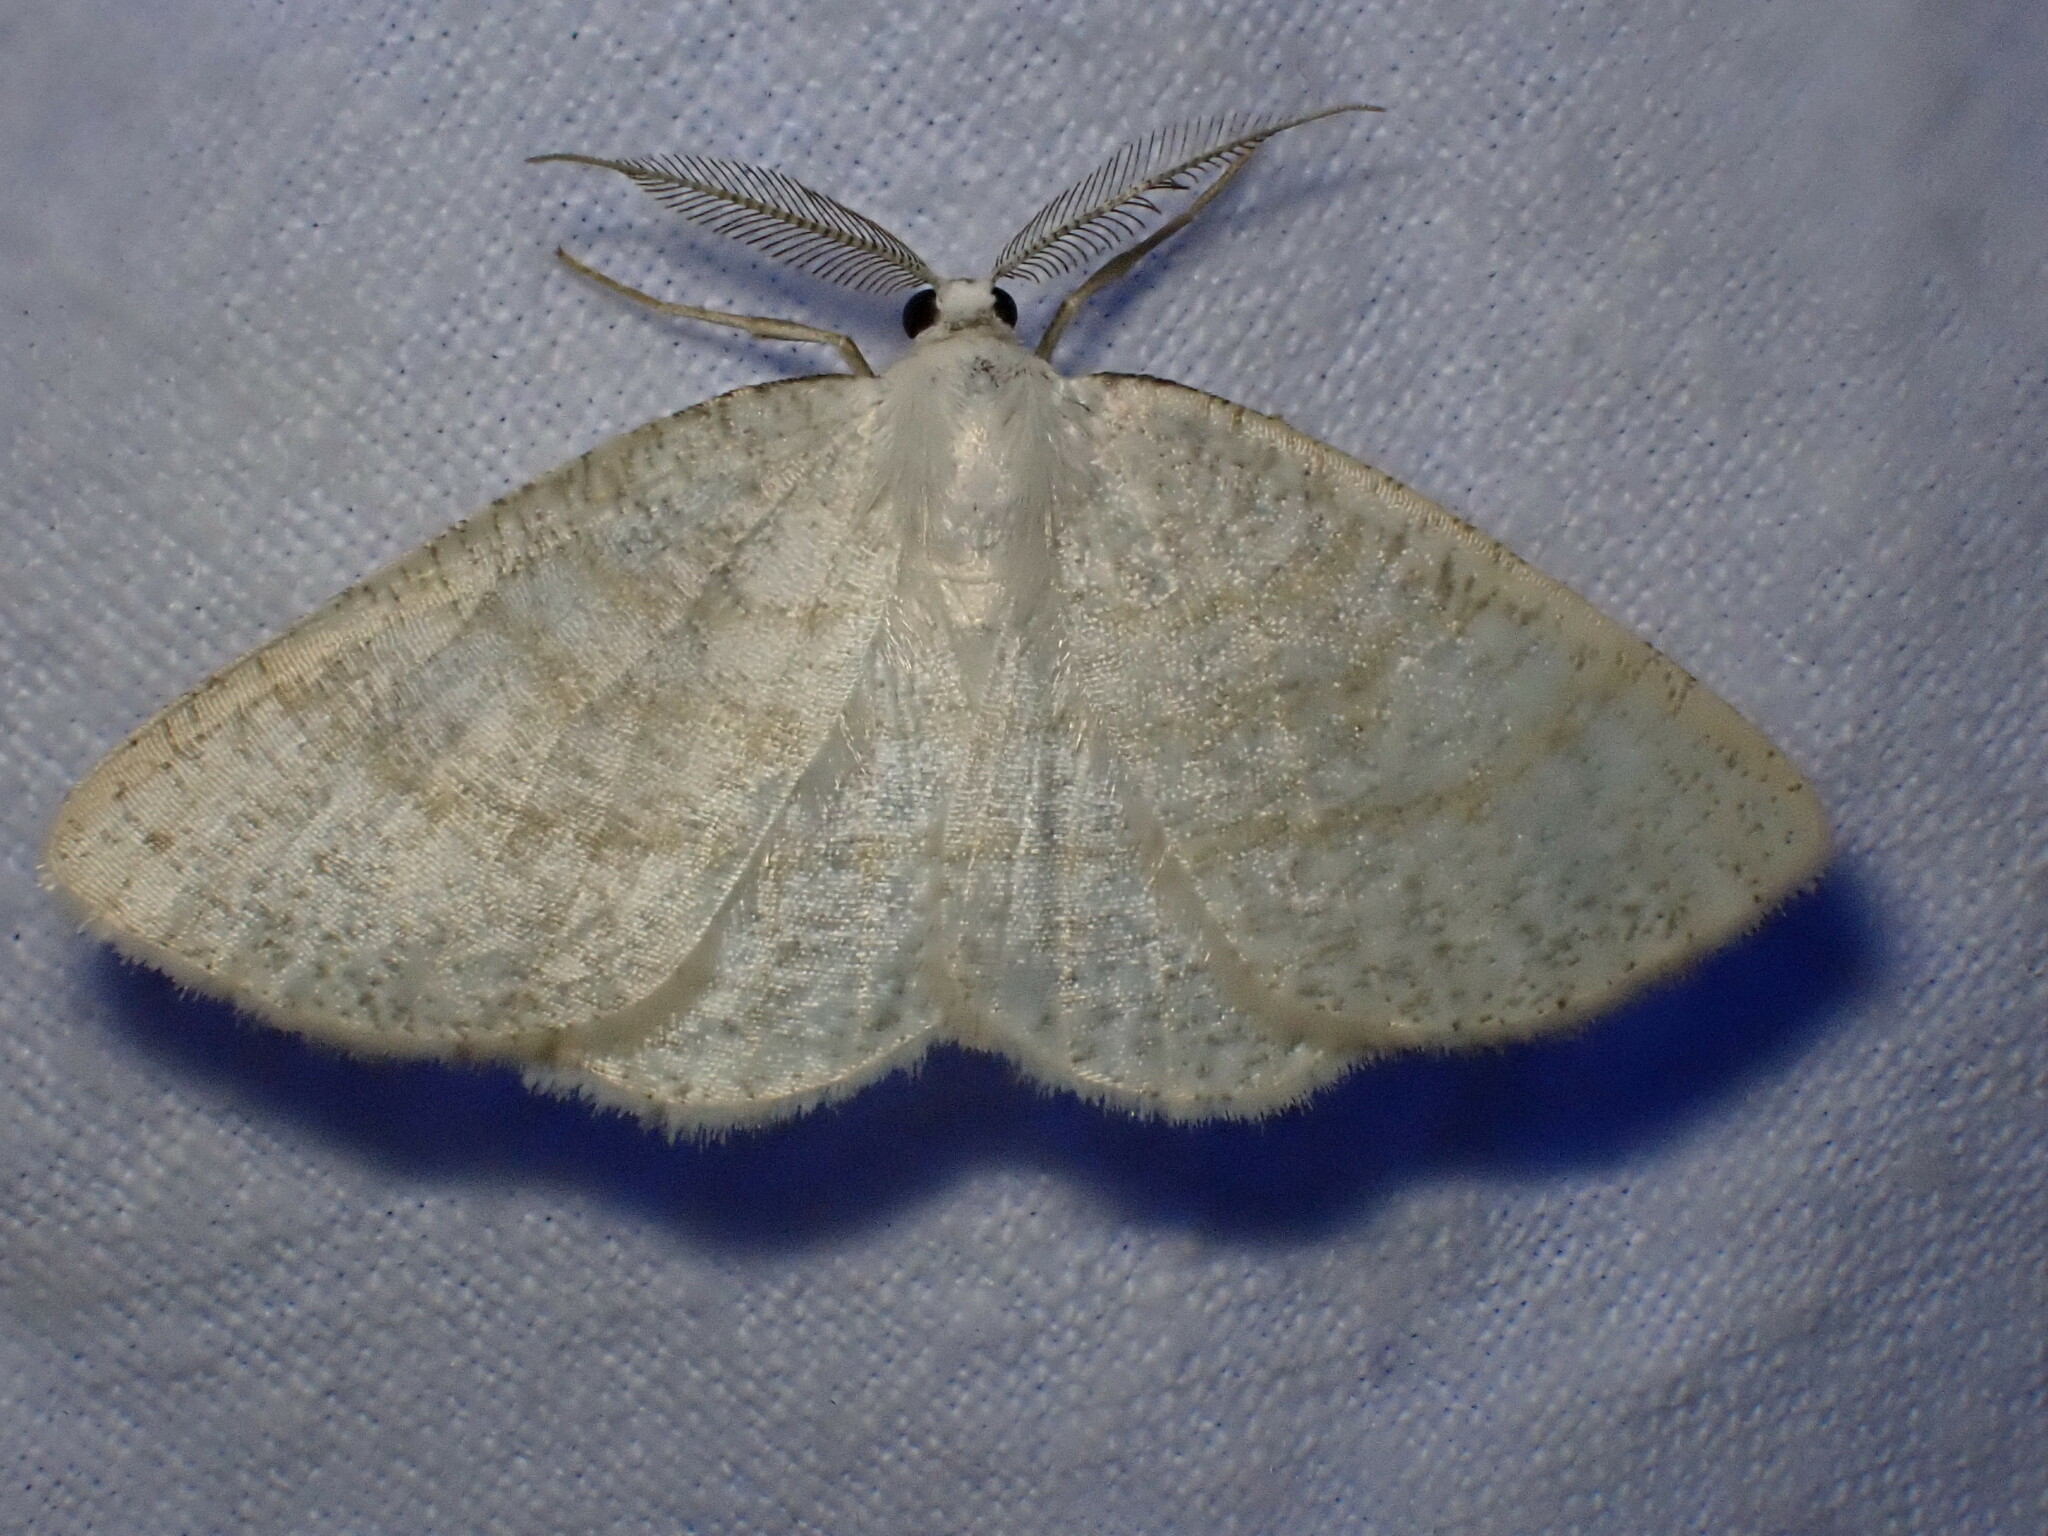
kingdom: Animalia
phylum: Arthropoda
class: Insecta
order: Lepidoptera
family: Geometridae
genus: Cabera
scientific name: Cabera exanthemata
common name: Common wave
